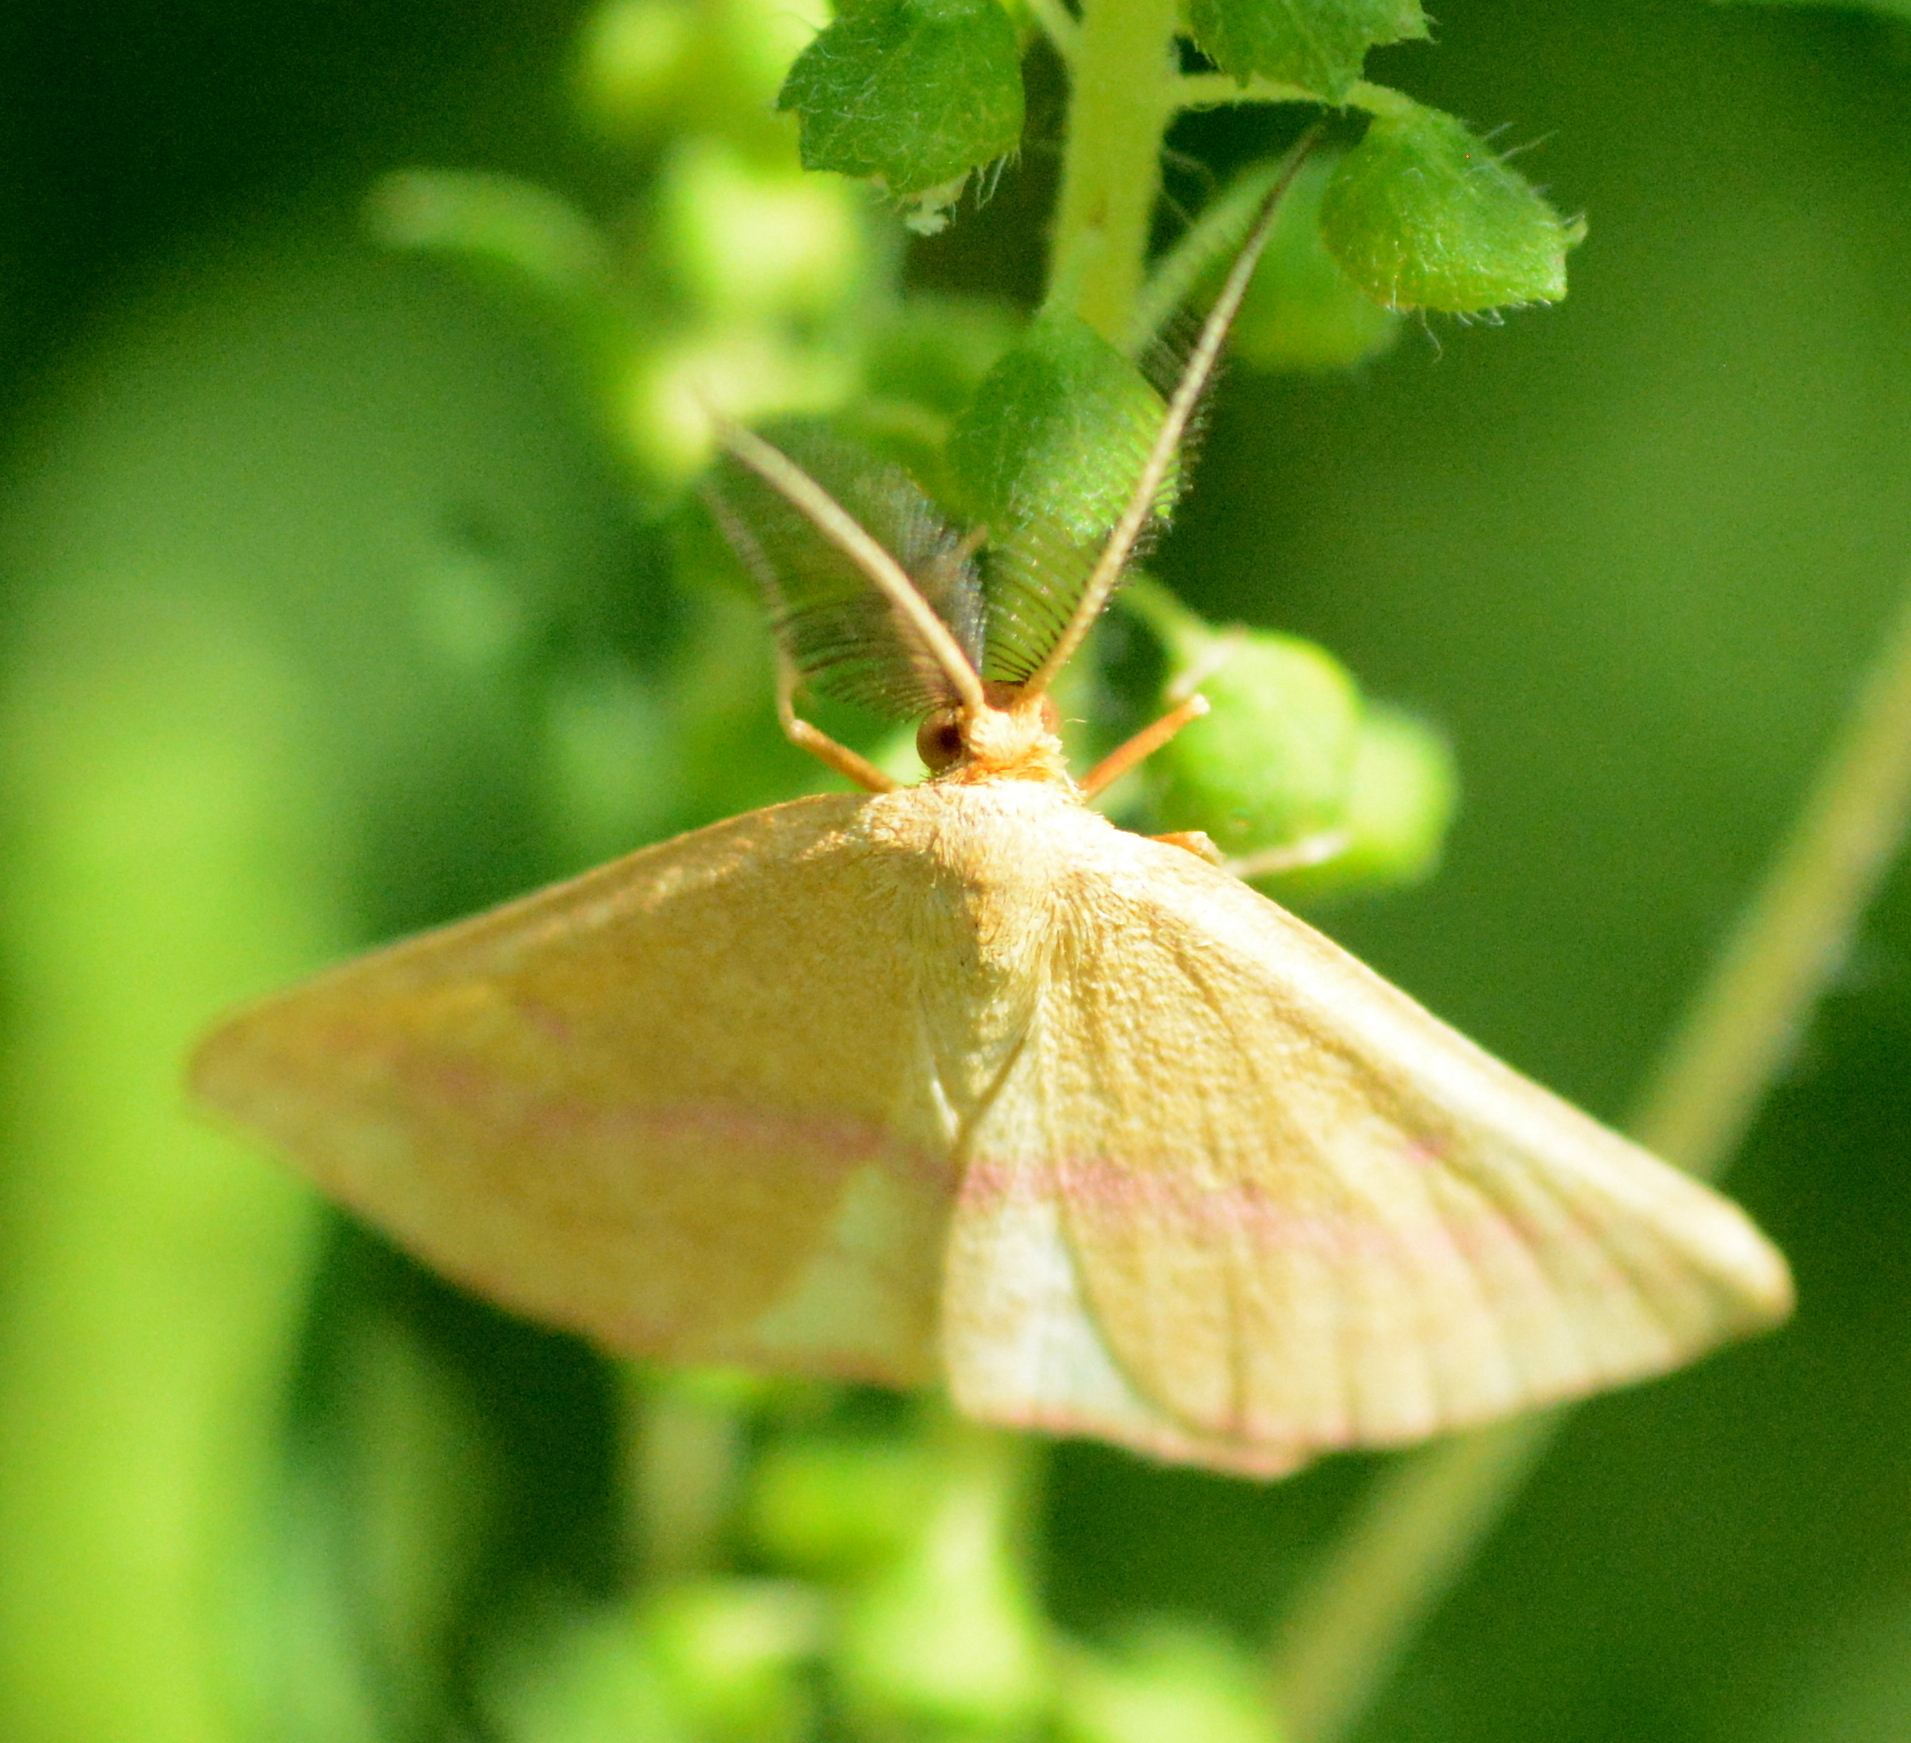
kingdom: Animalia
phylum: Arthropoda
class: Insecta
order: Lepidoptera
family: Geometridae
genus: Haematopis
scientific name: Haematopis grataria
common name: Chickweed geometer
